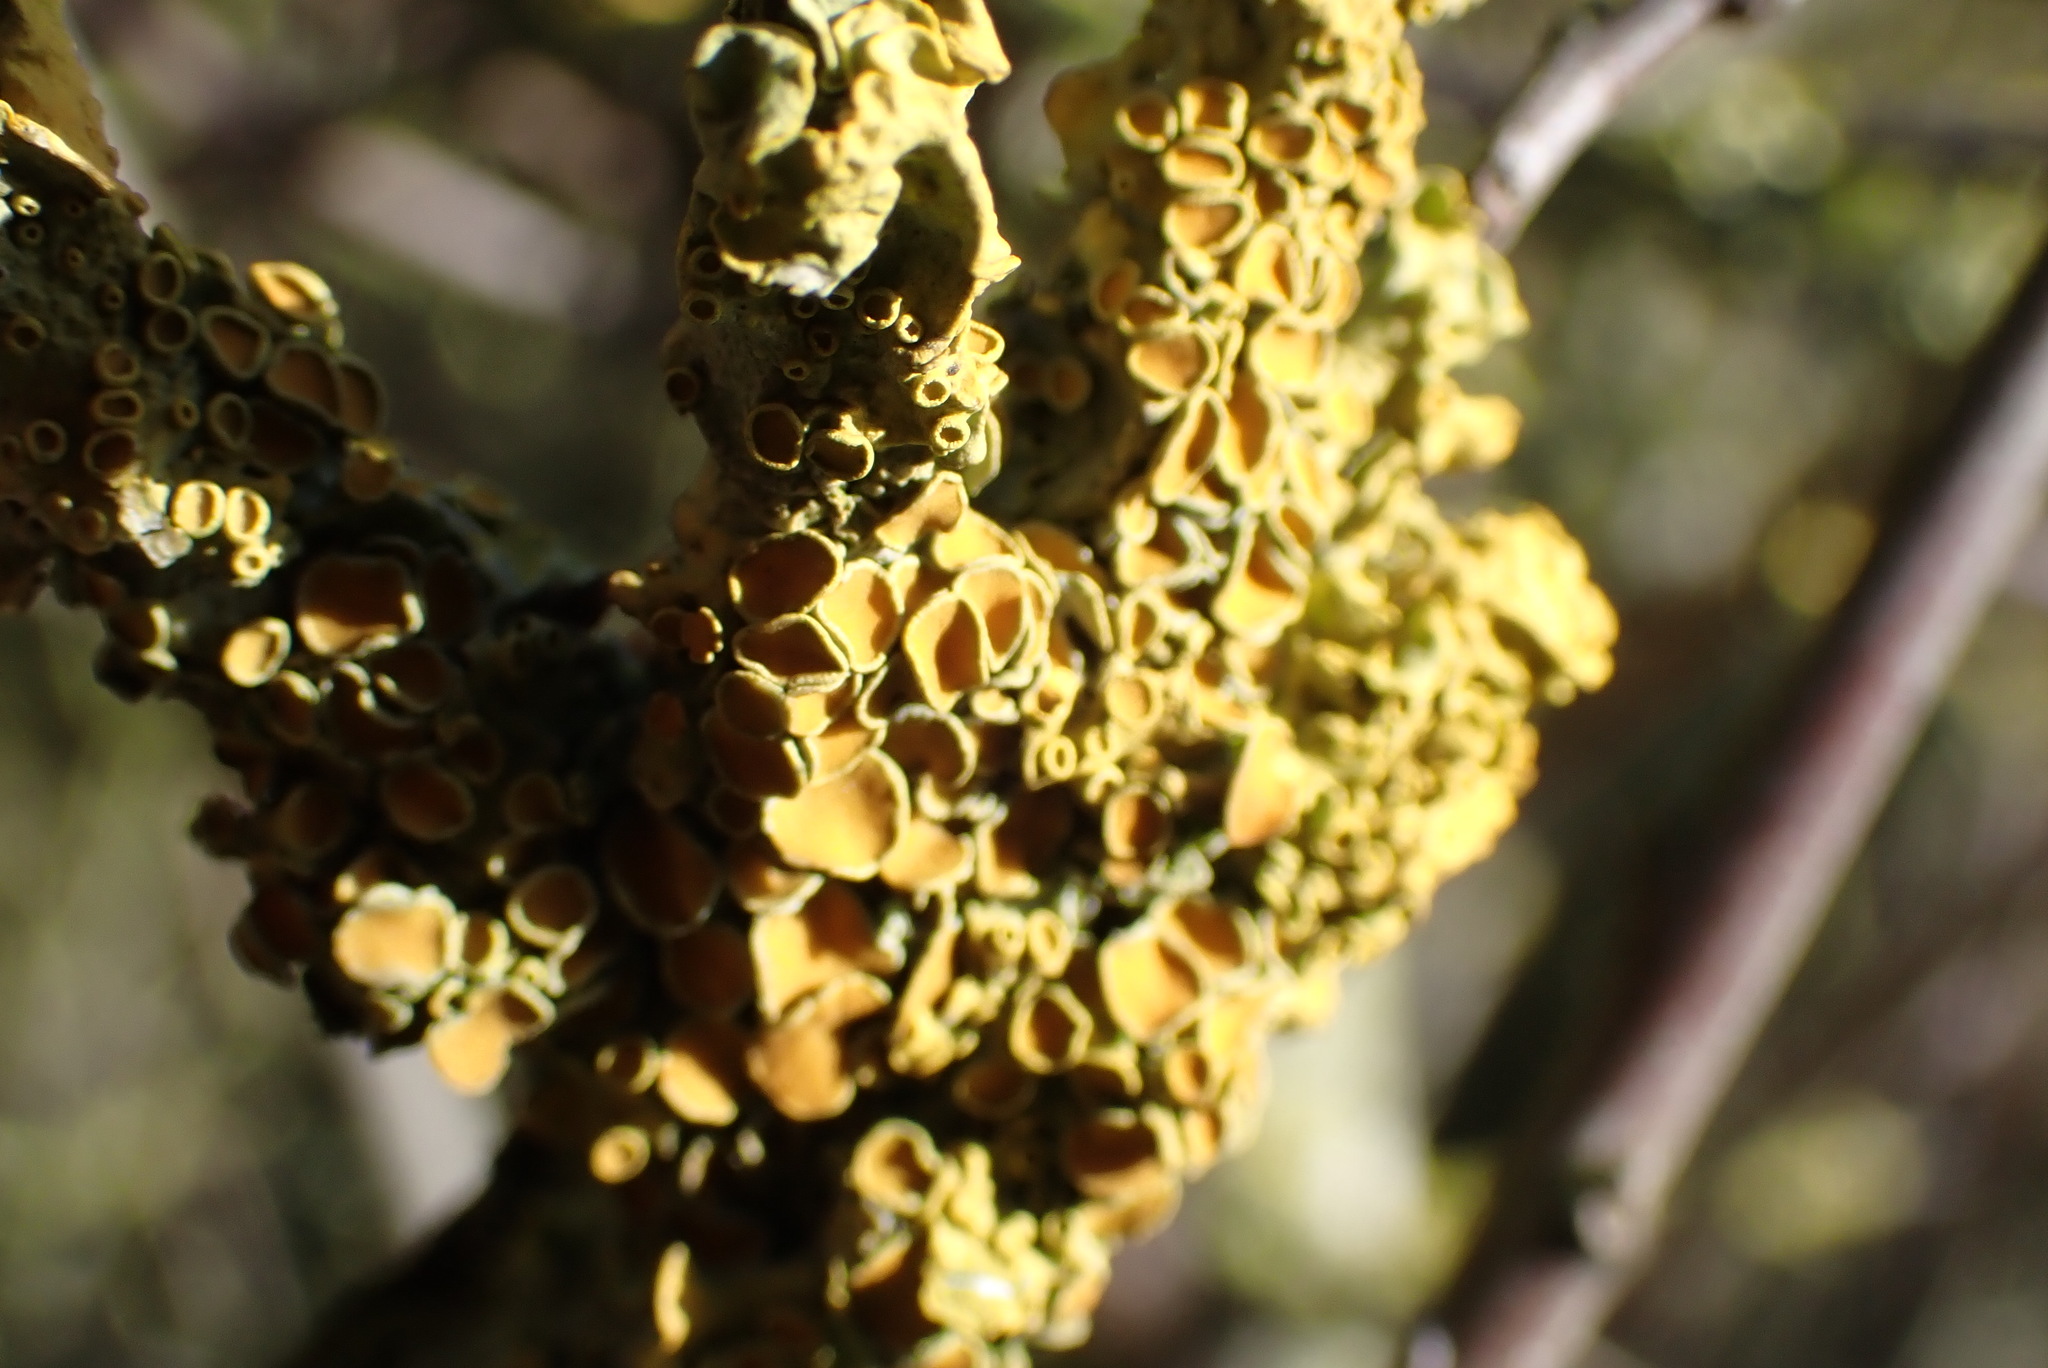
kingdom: Fungi
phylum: Ascomycota
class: Lecanoromycetes
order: Teloschistales
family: Teloschistaceae
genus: Xanthoria
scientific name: Xanthoria parietina
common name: Common orange lichen
